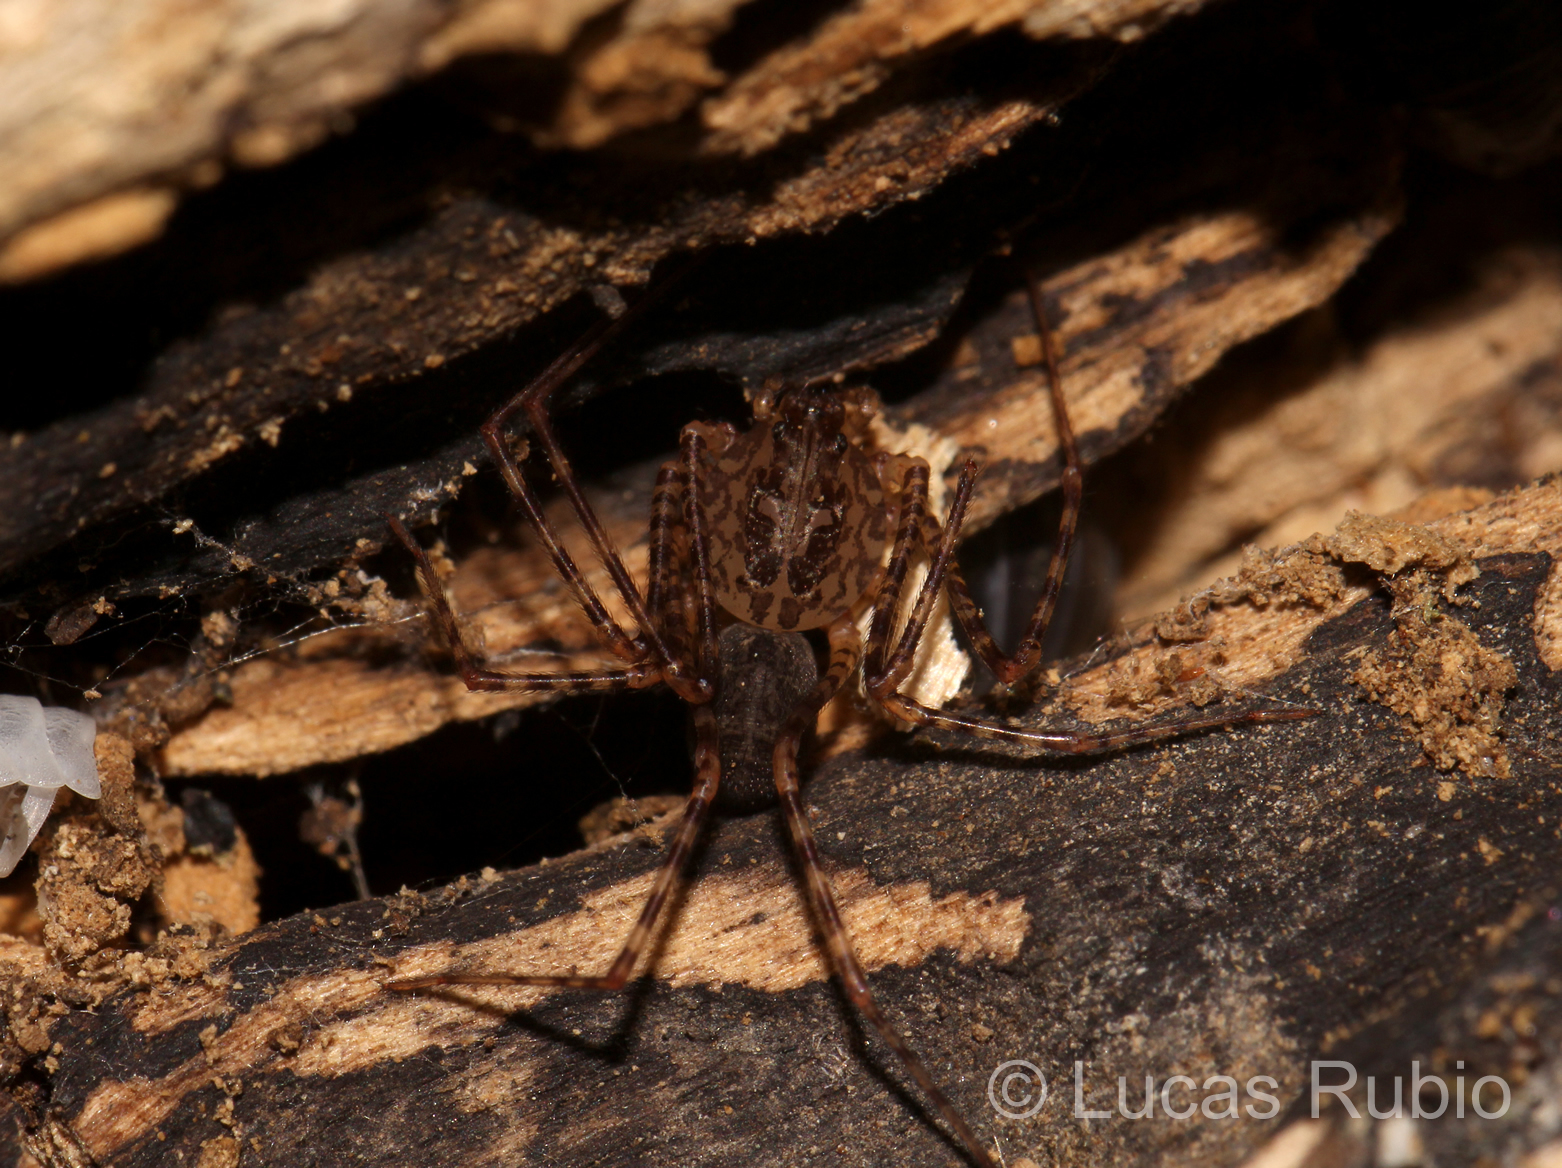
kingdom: Animalia
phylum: Arthropoda
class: Arachnida
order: Araneae
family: Scytodidae
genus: Scytodes
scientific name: Scytodes globula
